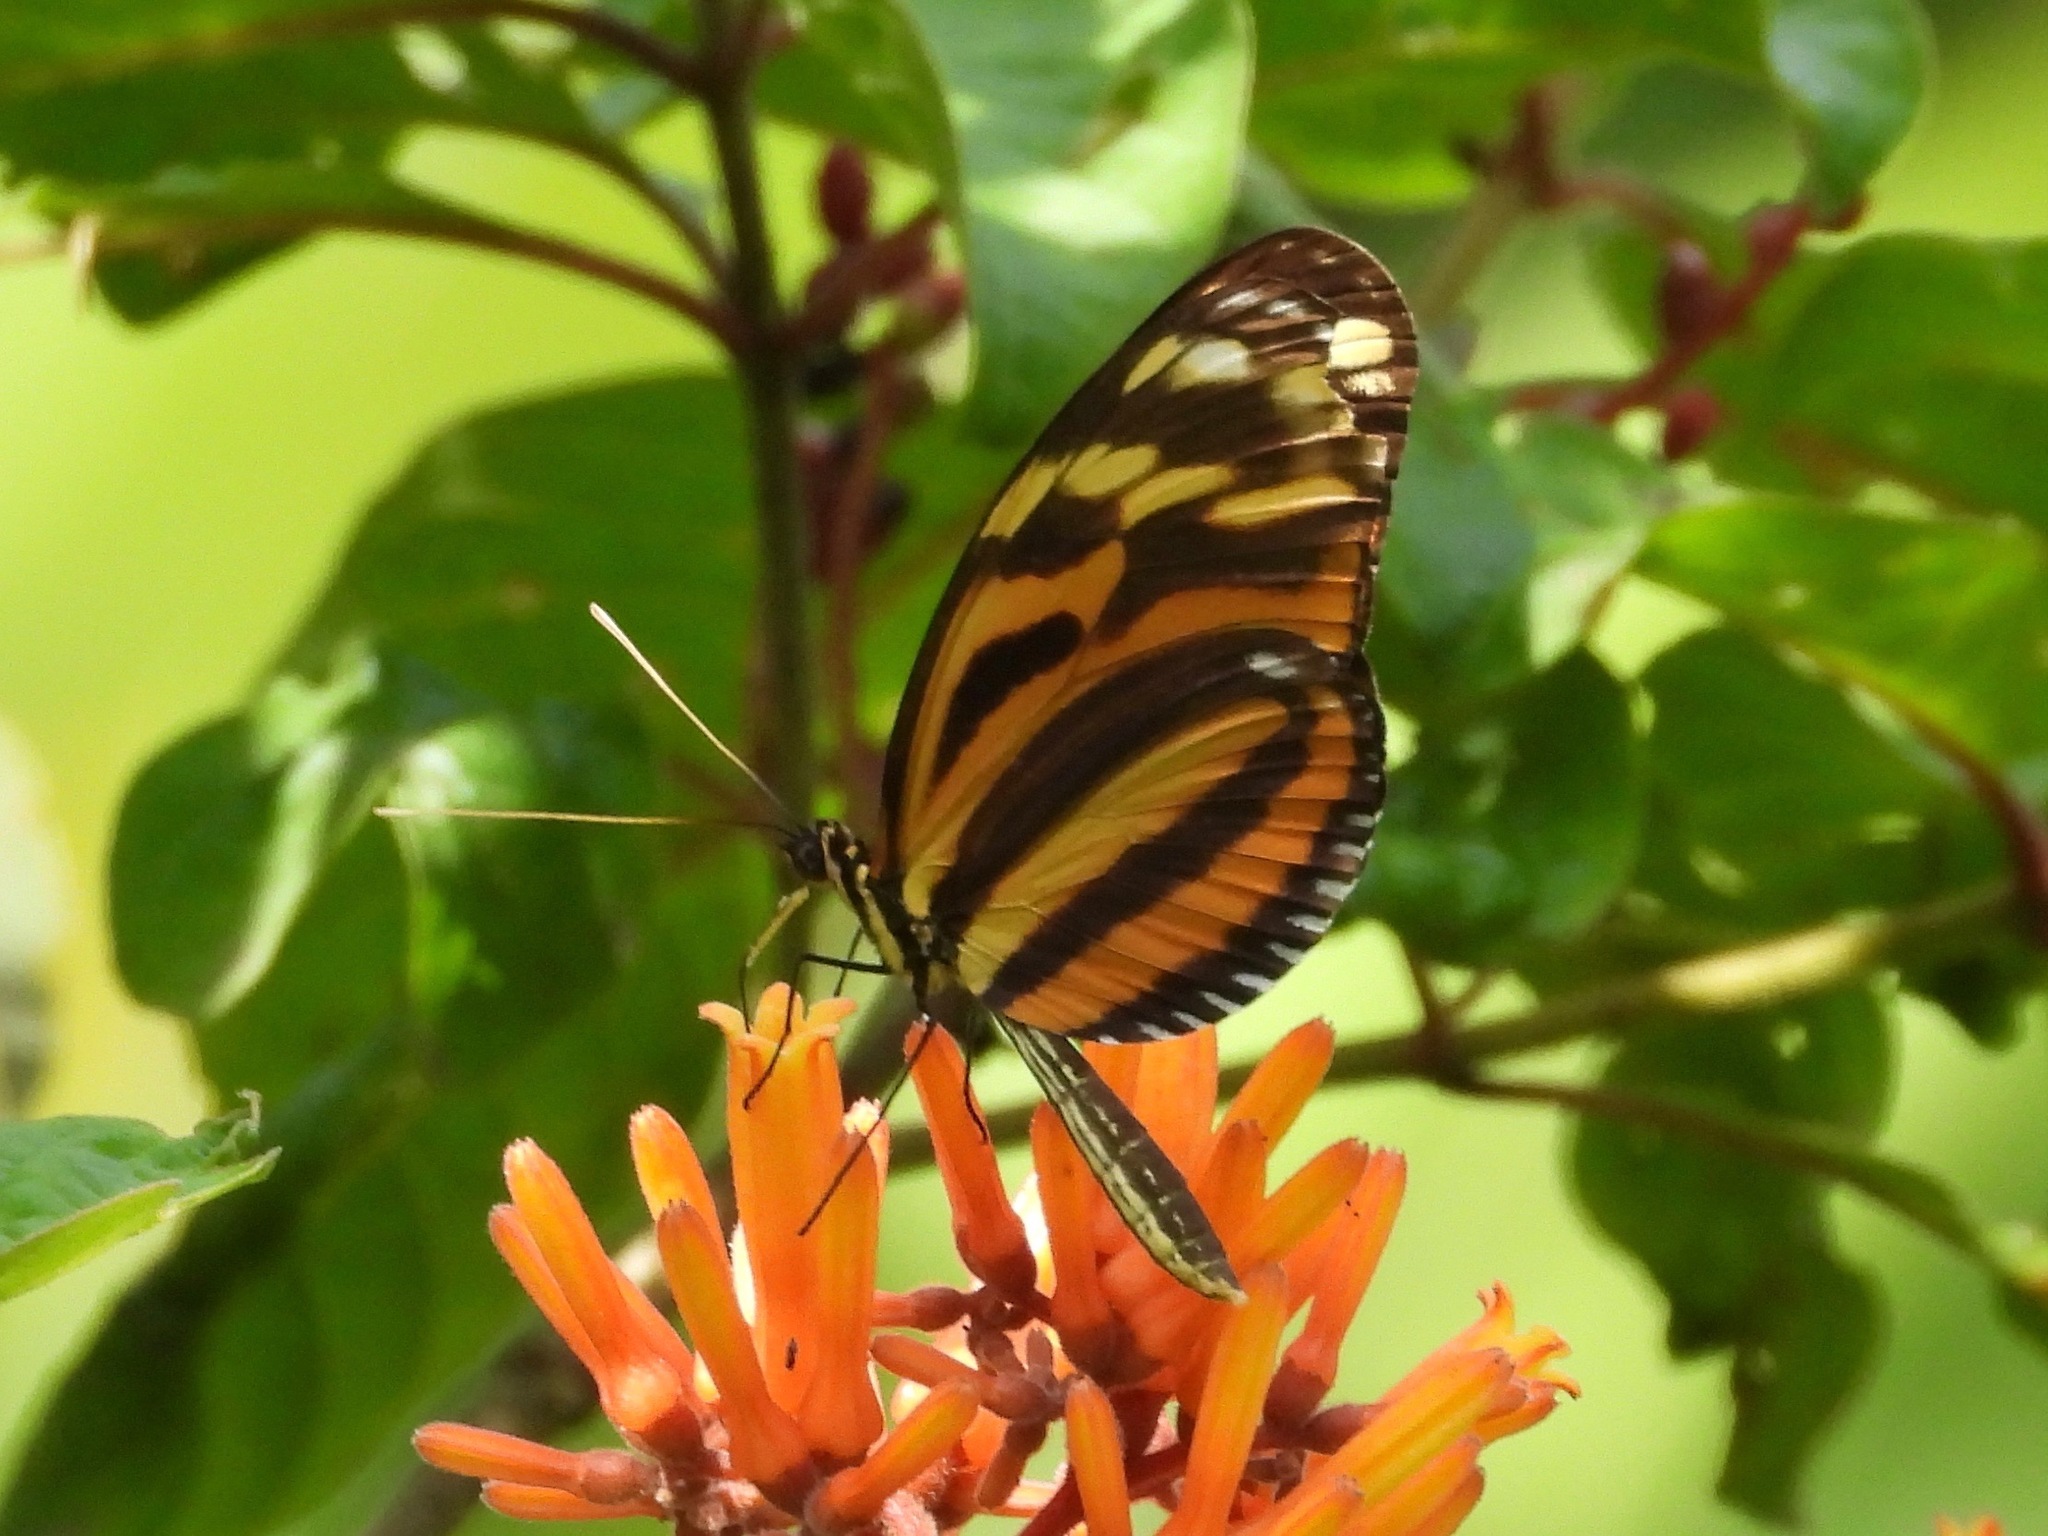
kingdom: Animalia
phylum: Arthropoda
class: Insecta
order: Lepidoptera
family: Nymphalidae
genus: Heliconius
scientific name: Heliconius ismenius
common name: Ismenius tiger
